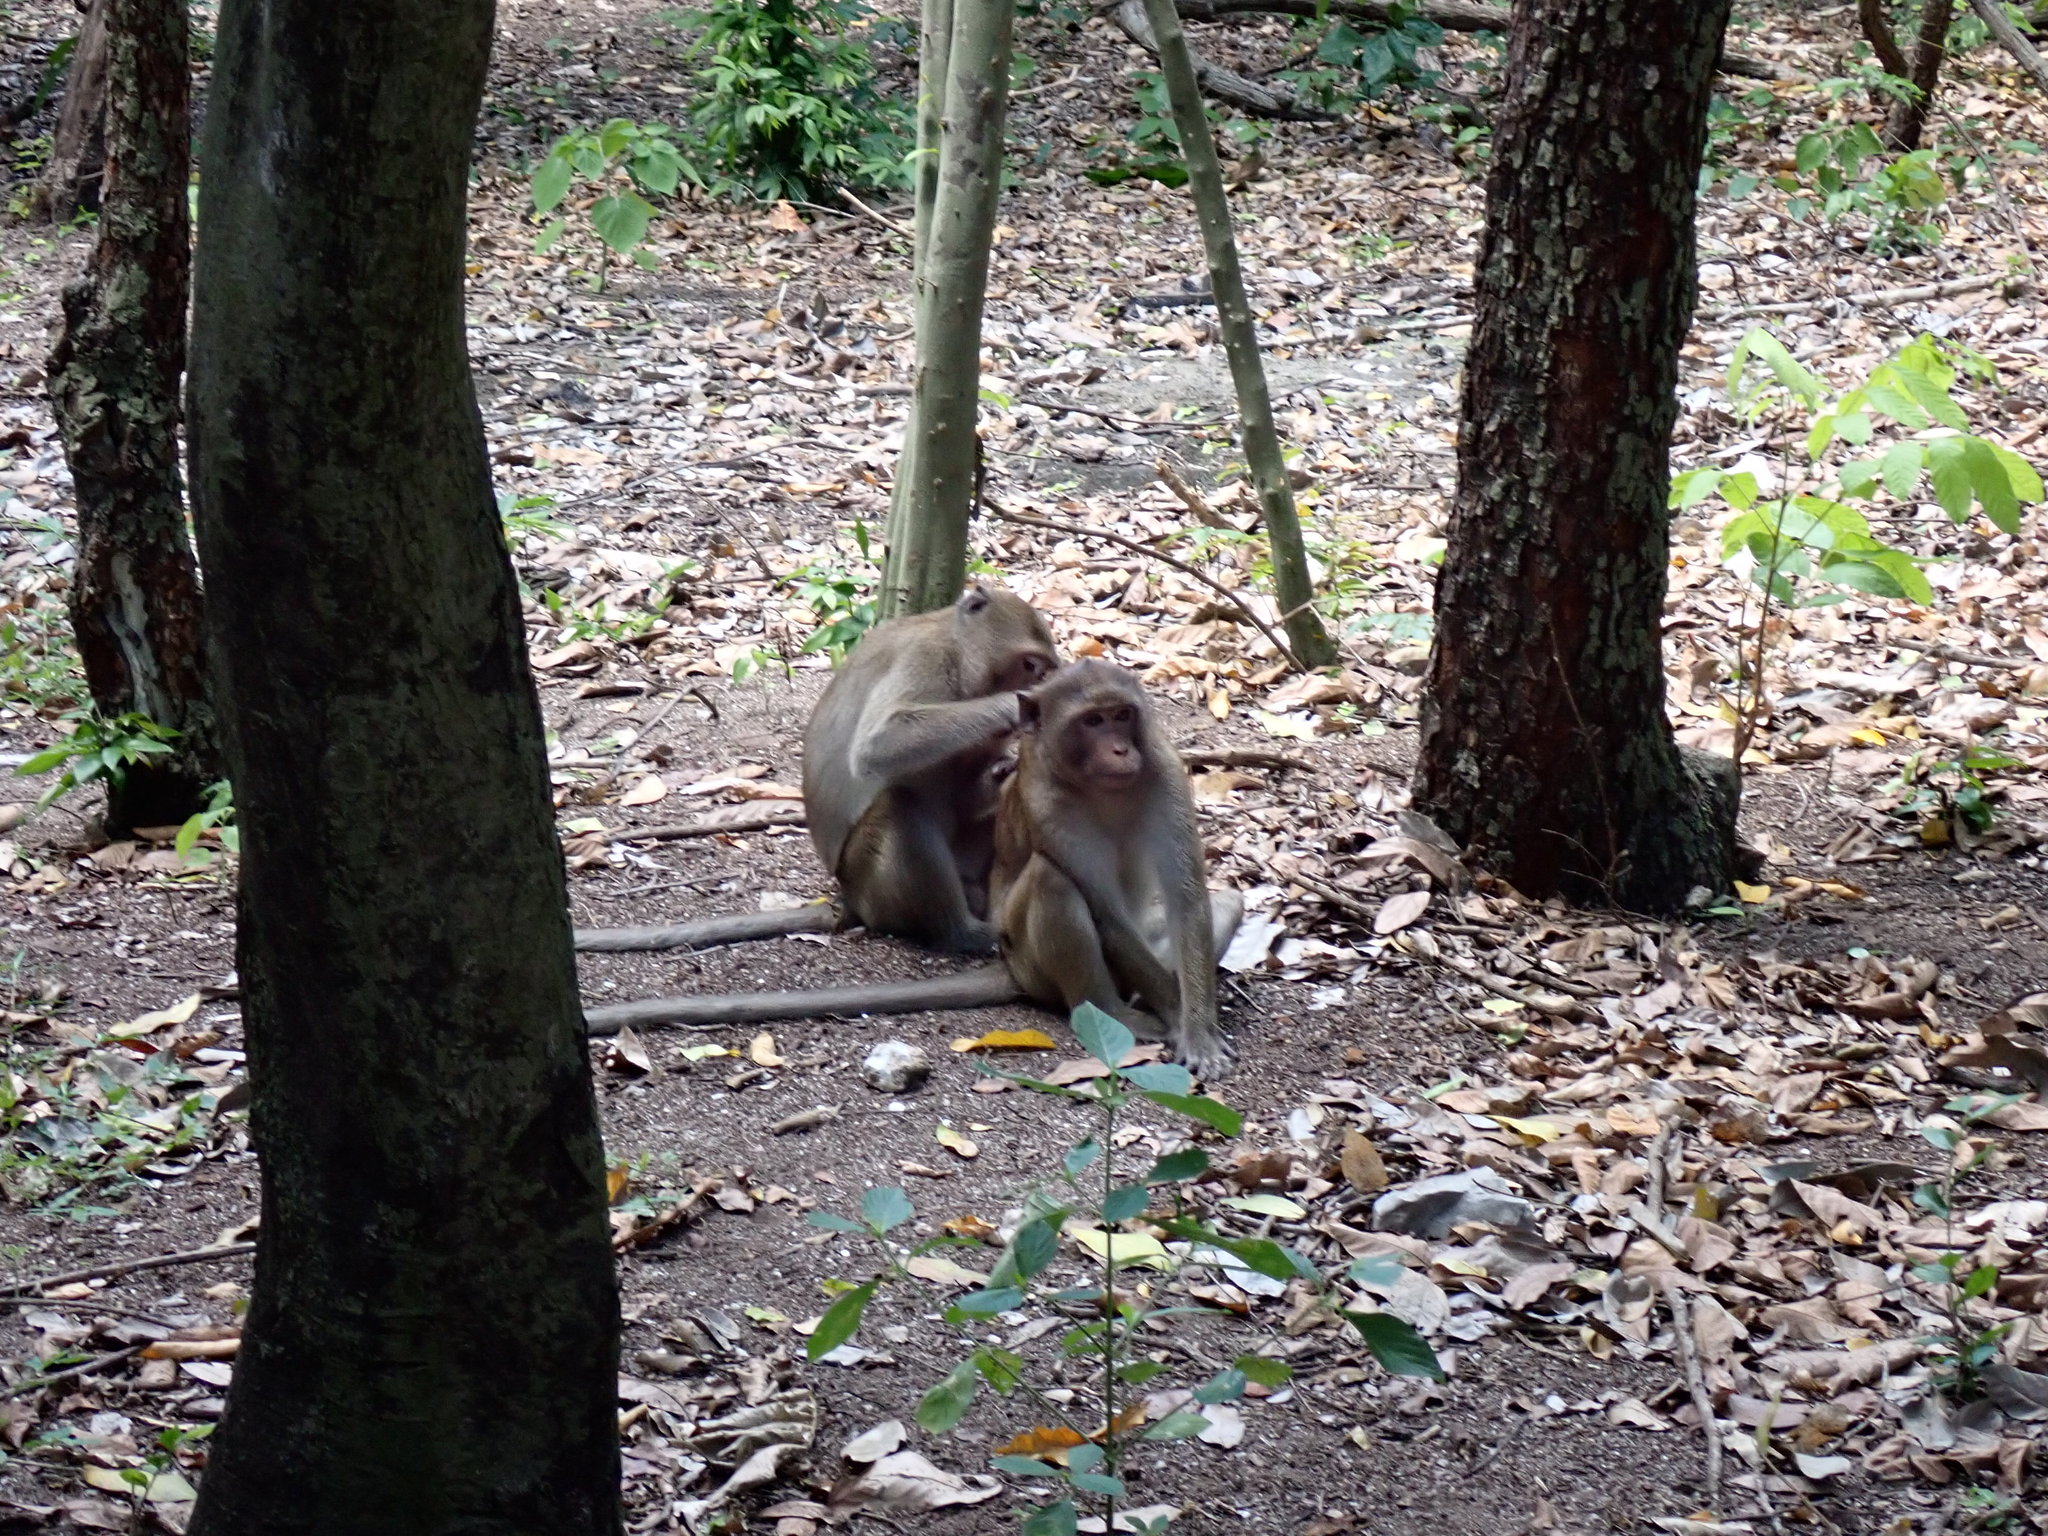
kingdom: Animalia
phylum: Chordata
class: Mammalia
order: Primates
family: Cercopithecidae
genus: Macaca
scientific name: Macaca fascicularis
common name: Crab-eating macaque
